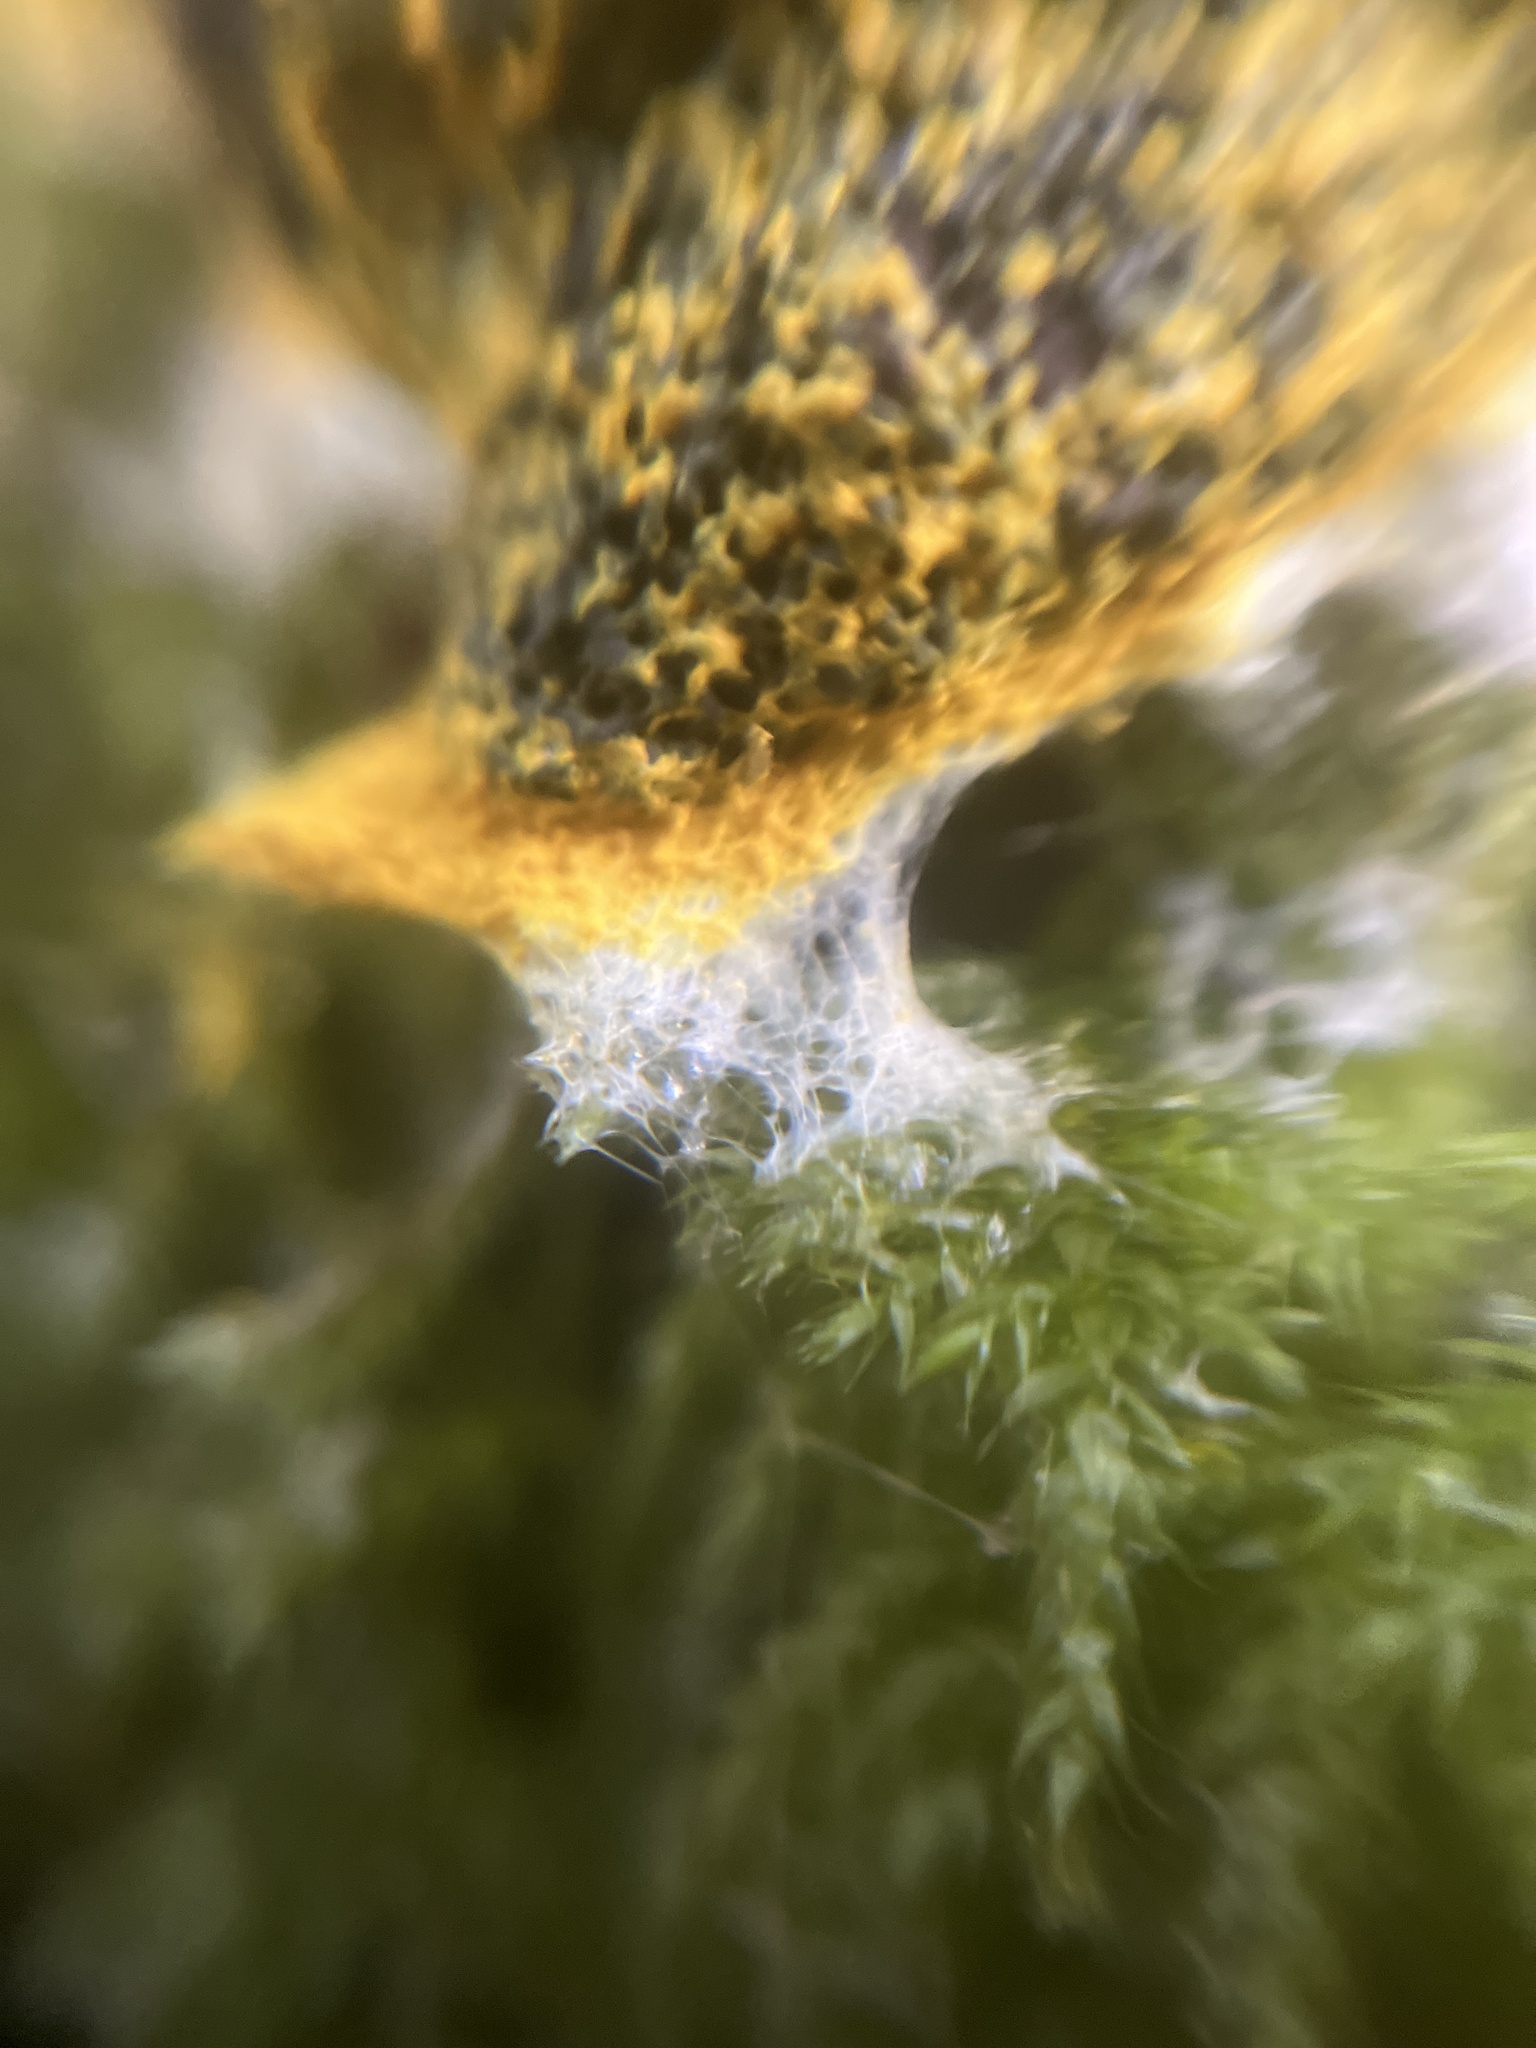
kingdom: Protozoa
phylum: Mycetozoa
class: Myxomycetes
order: Physarales
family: Physaraceae
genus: Fuligo
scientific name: Fuligo septica
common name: Dog vomit slime mold
